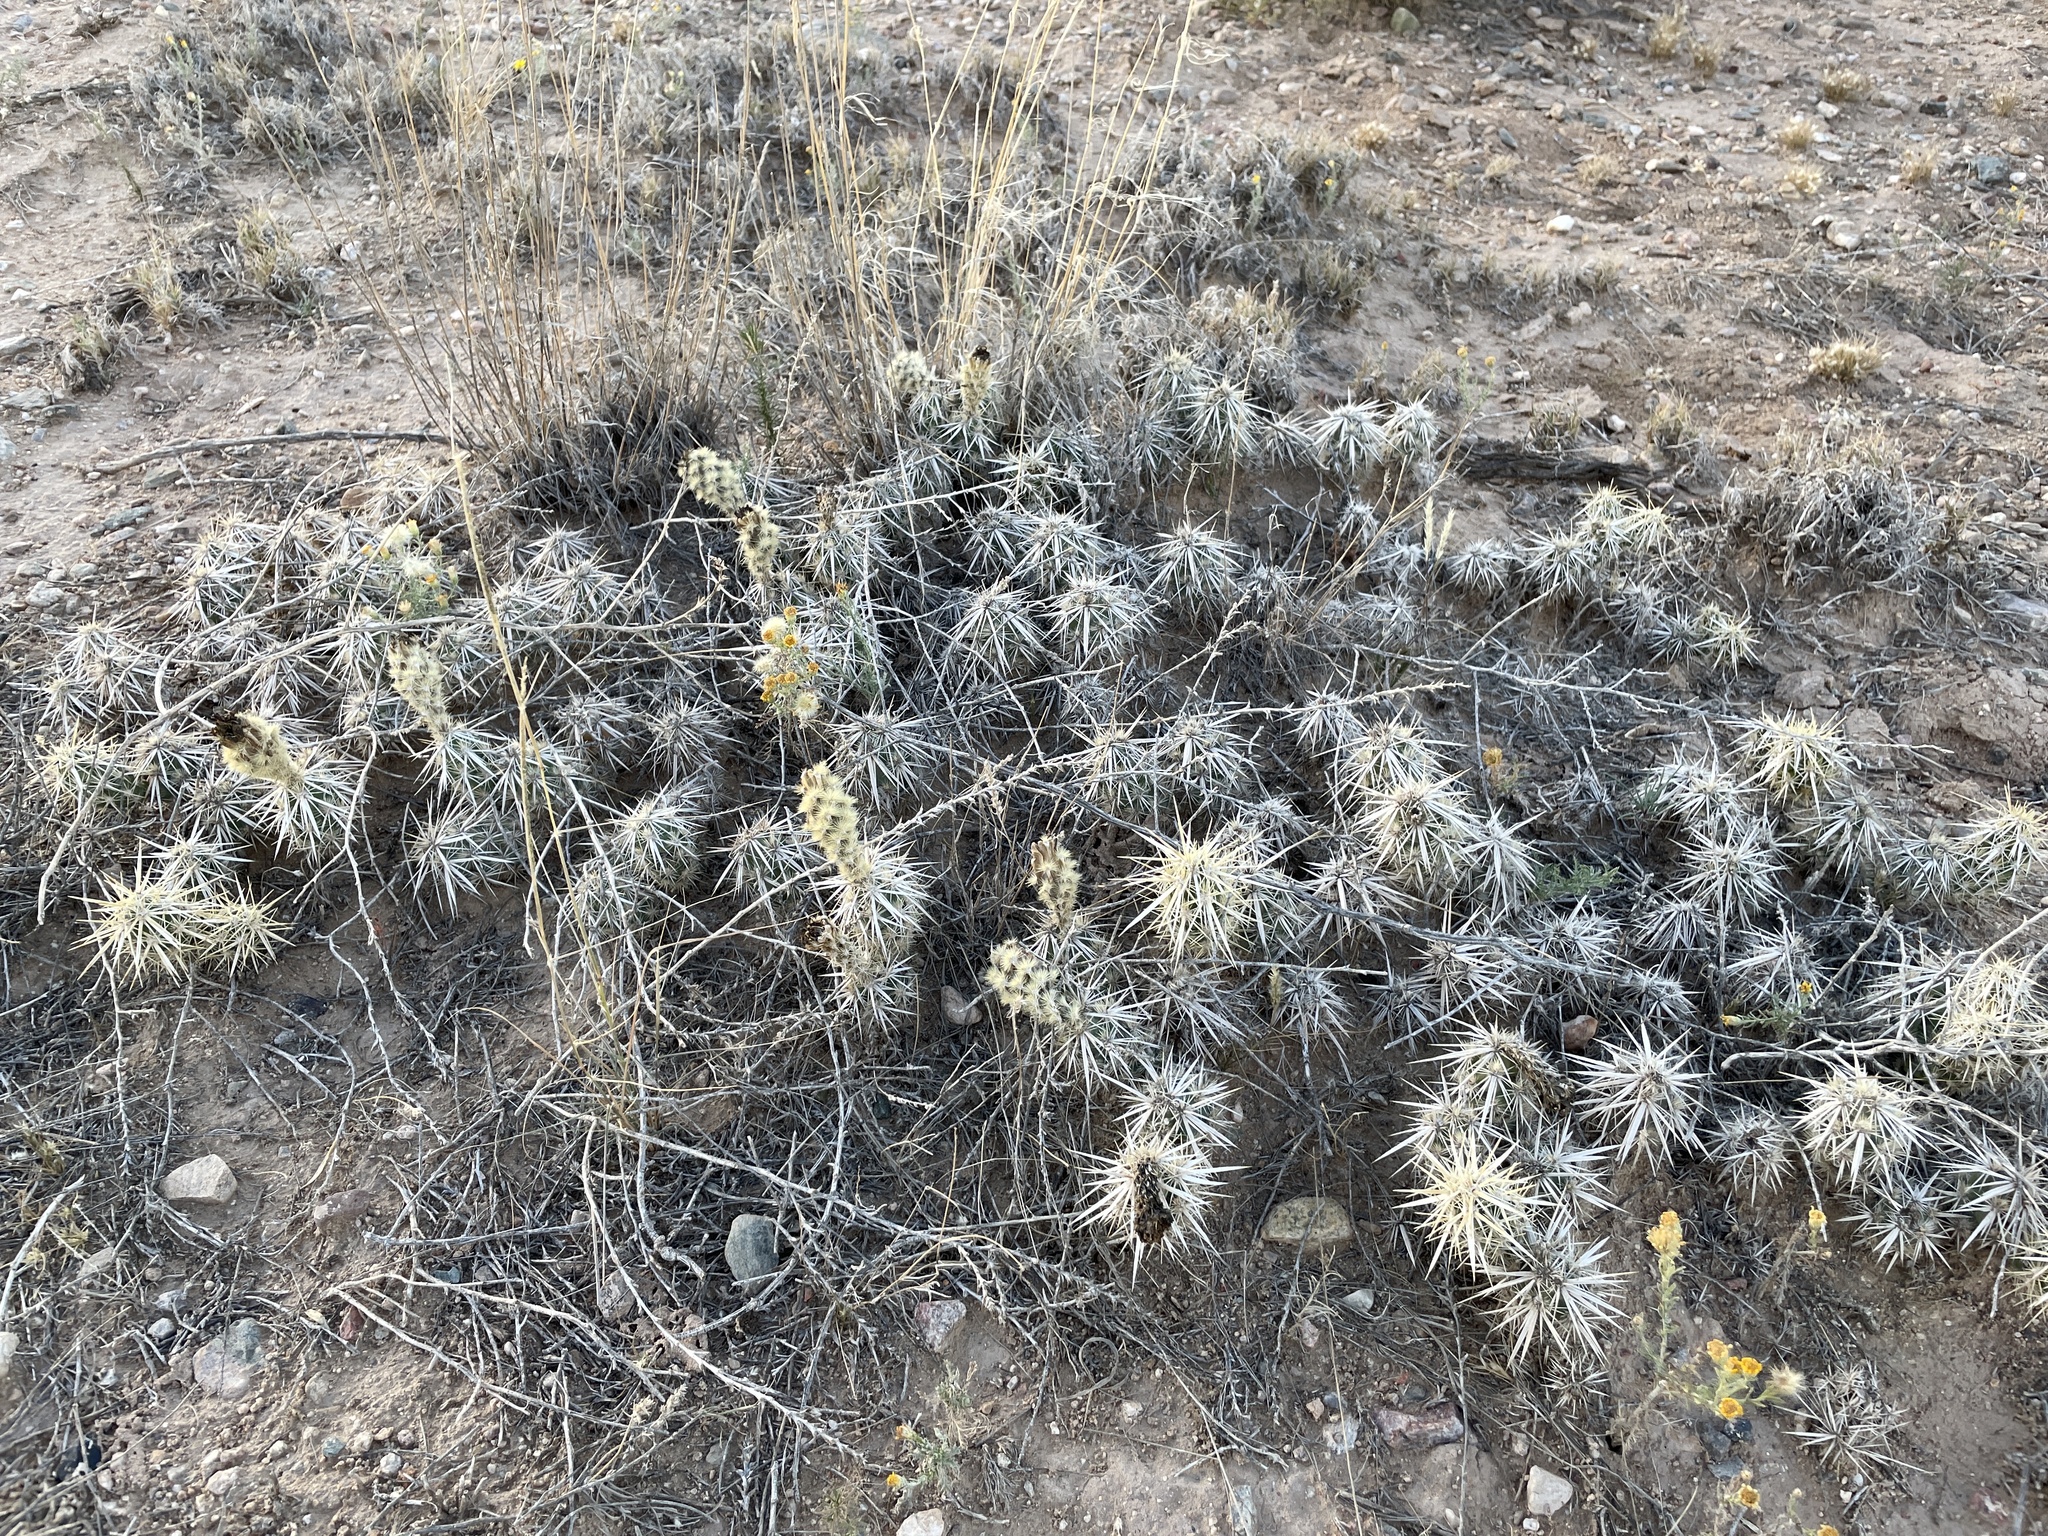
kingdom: Plantae
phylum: Tracheophyta
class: Magnoliopsida
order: Caryophyllales
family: Cactaceae
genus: Grusonia
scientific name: Grusonia clavata
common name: Club cholla
